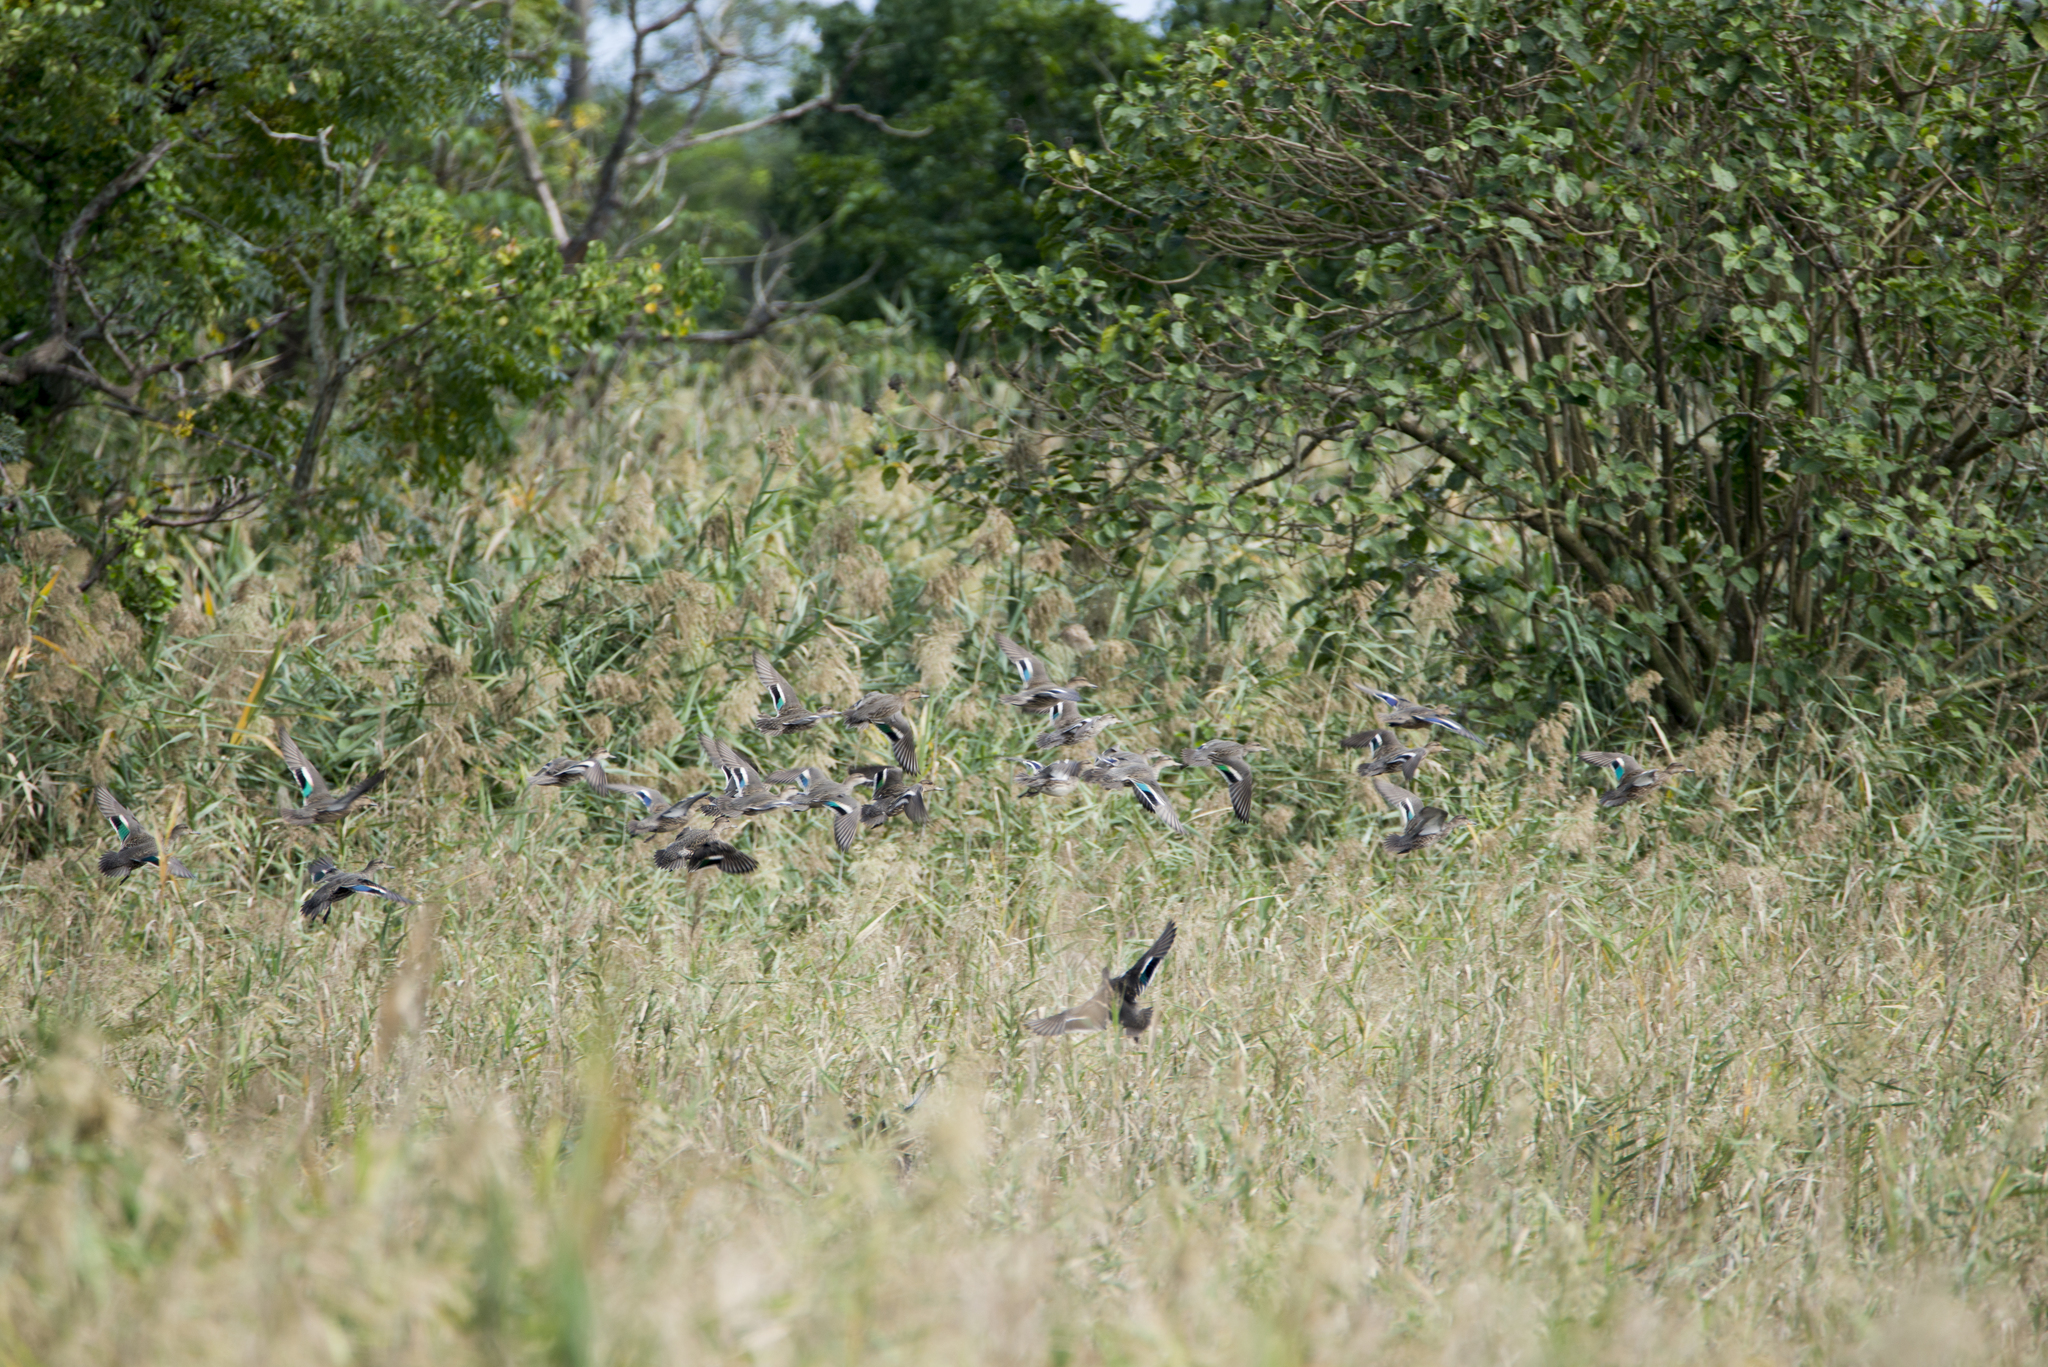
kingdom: Animalia
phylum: Chordata
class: Aves
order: Anseriformes
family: Anatidae
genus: Anas
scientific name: Anas crecca
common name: Eurasian teal
